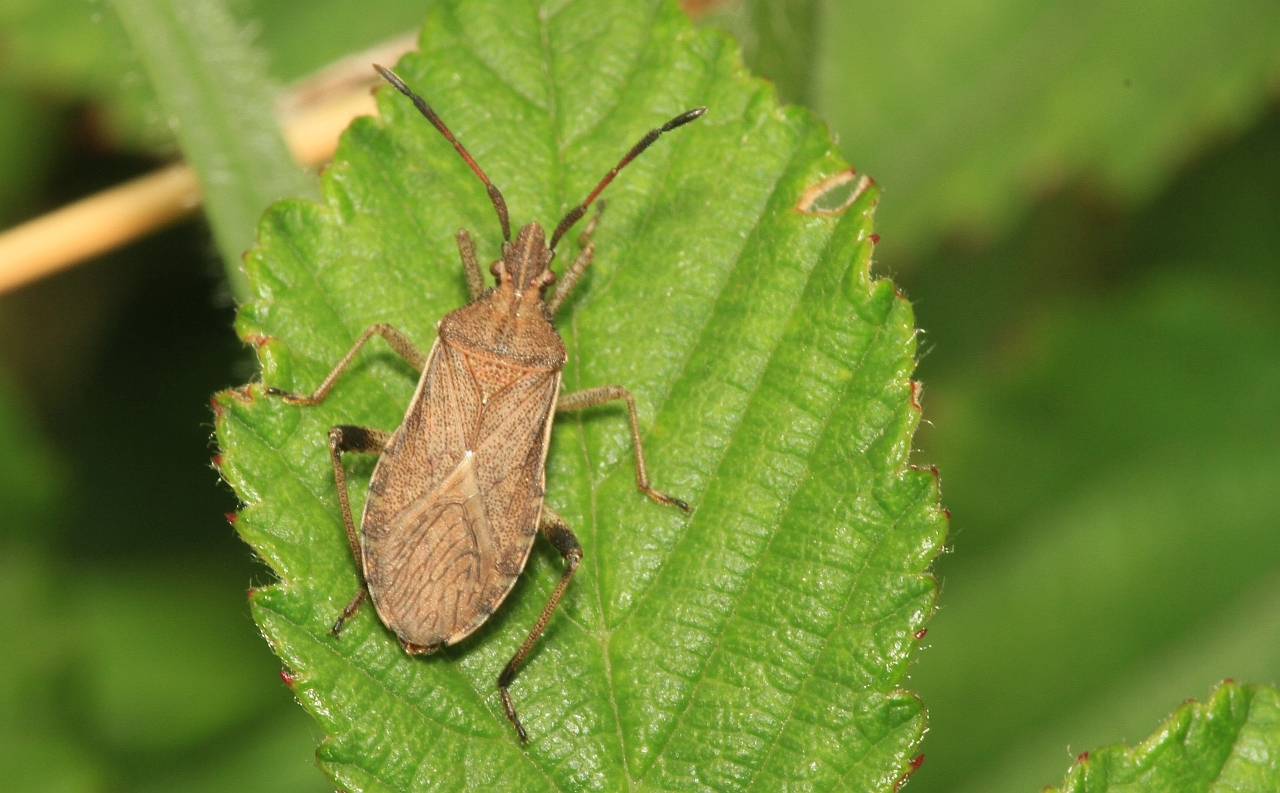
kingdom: Animalia
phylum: Arthropoda
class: Insecta
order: Hemiptera
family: Coreidae
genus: Ceraleptus
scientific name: Ceraleptus lividus
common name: Slender-horned leatherbug
